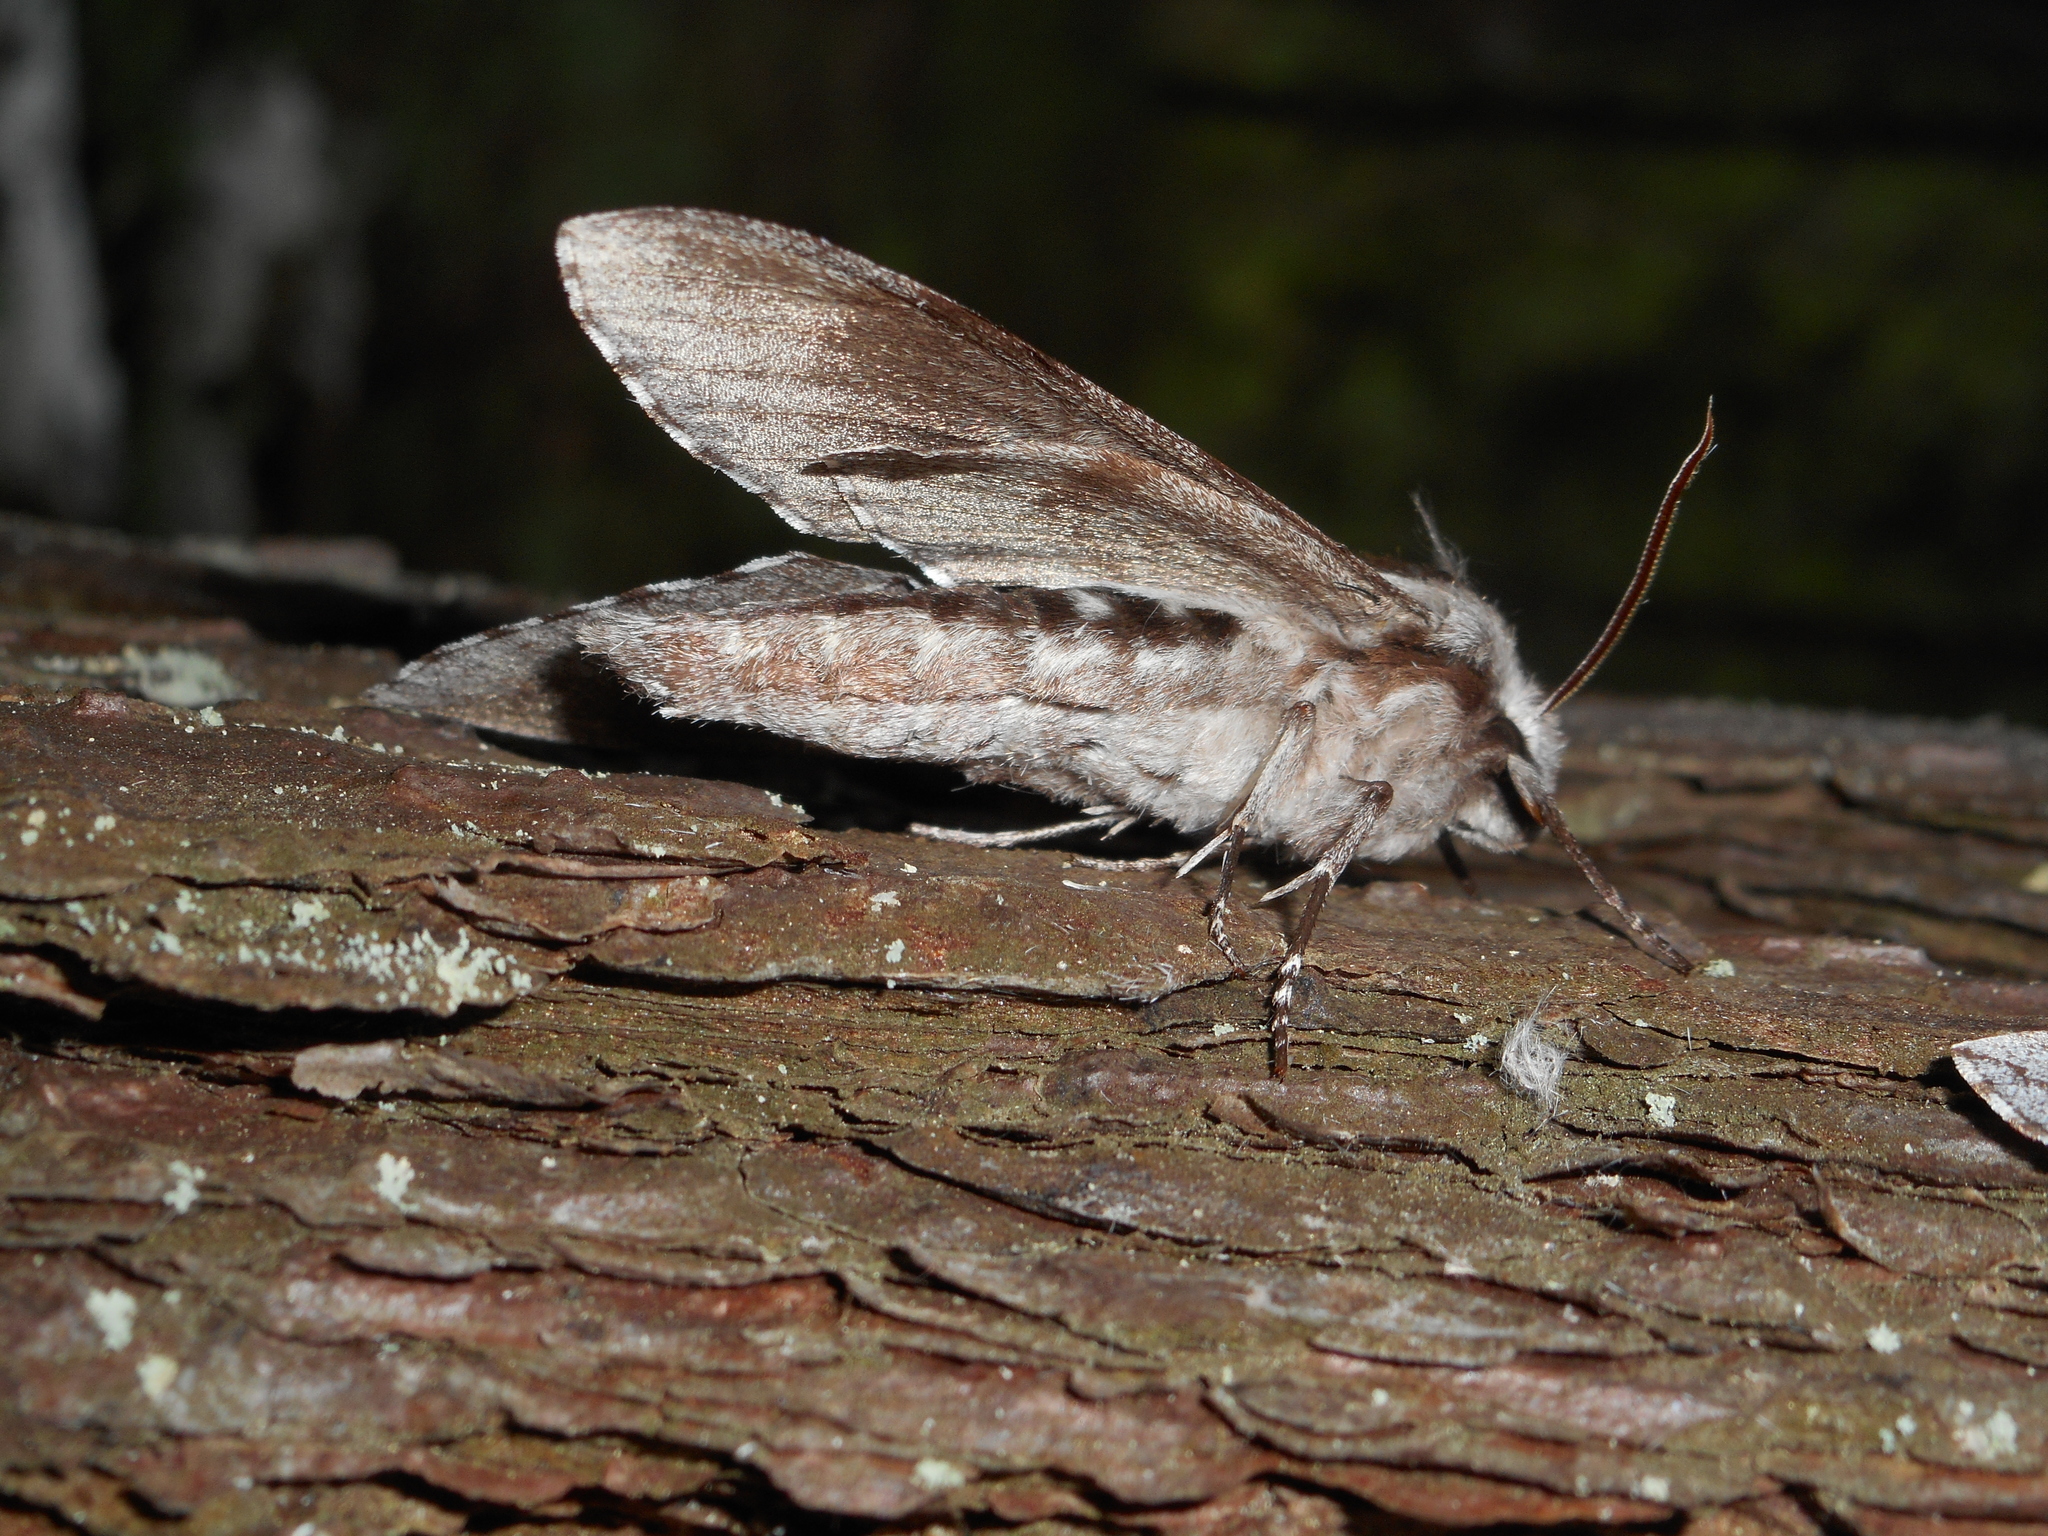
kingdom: Animalia
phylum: Arthropoda
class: Insecta
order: Lepidoptera
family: Sphingidae
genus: Sphinx
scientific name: Sphinx pinastri
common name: Pine hawk-moth
